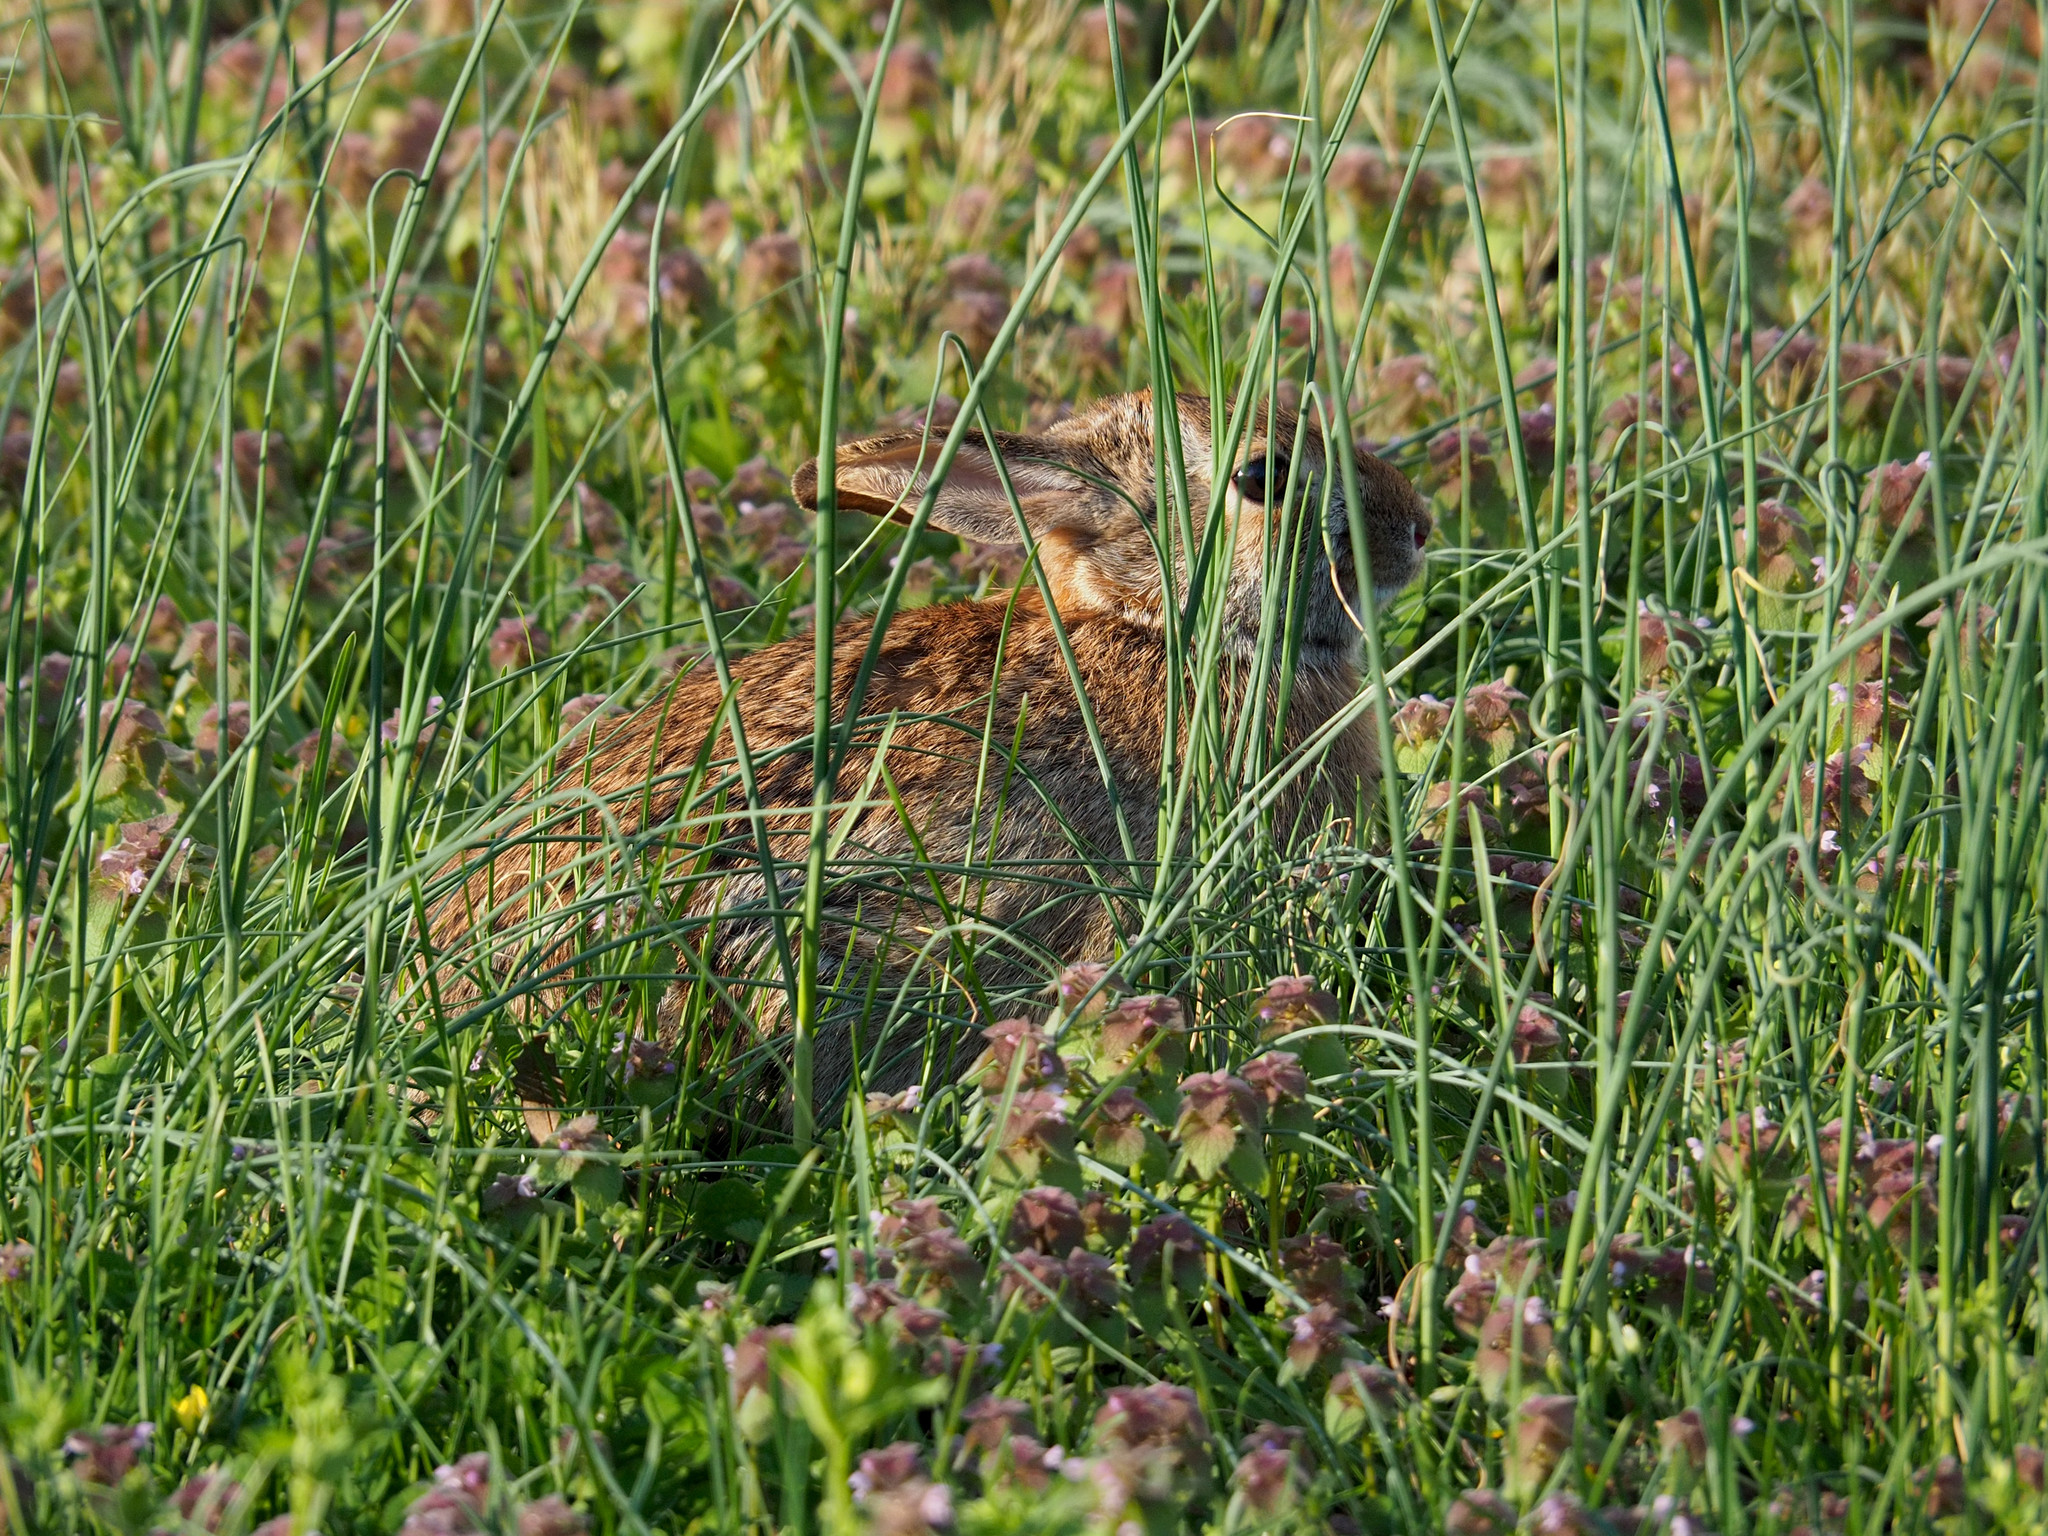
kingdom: Animalia
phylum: Chordata
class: Mammalia
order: Lagomorpha
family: Leporidae
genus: Sylvilagus
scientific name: Sylvilagus floridanus
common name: Eastern cottontail
